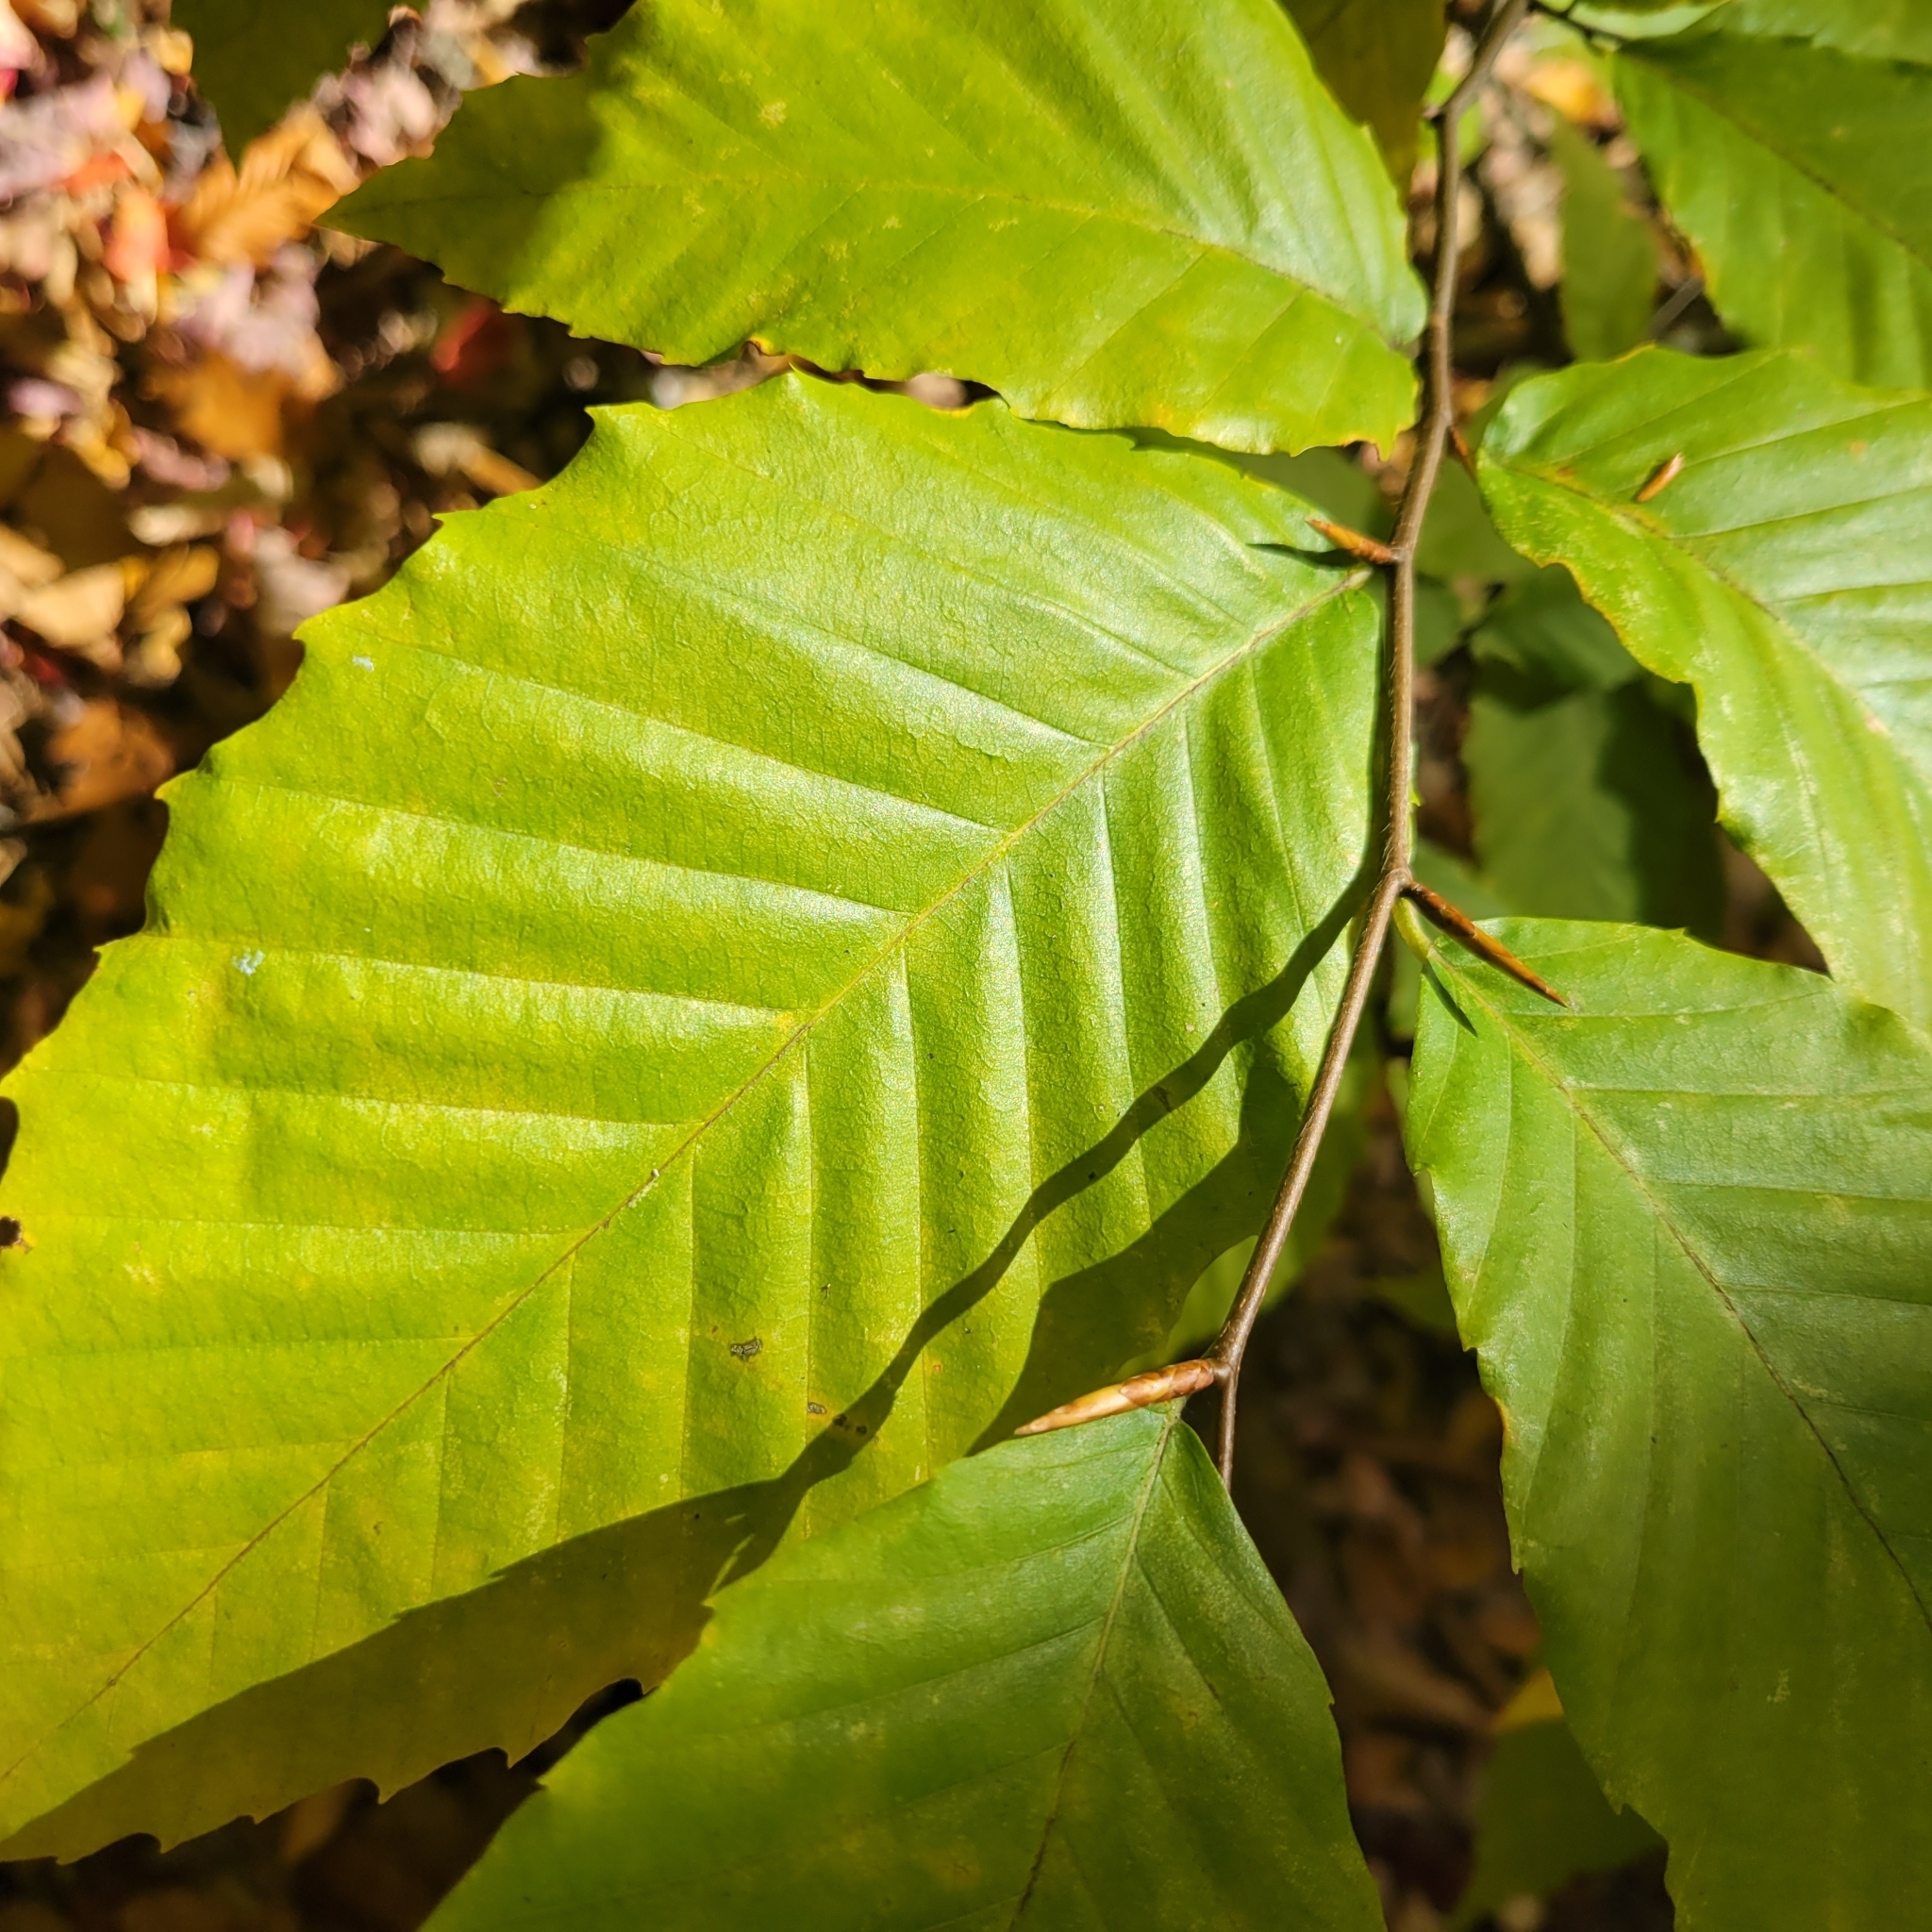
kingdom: Plantae
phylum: Tracheophyta
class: Magnoliopsida
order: Fagales
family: Fagaceae
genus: Fagus
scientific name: Fagus grandifolia
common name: American beech
